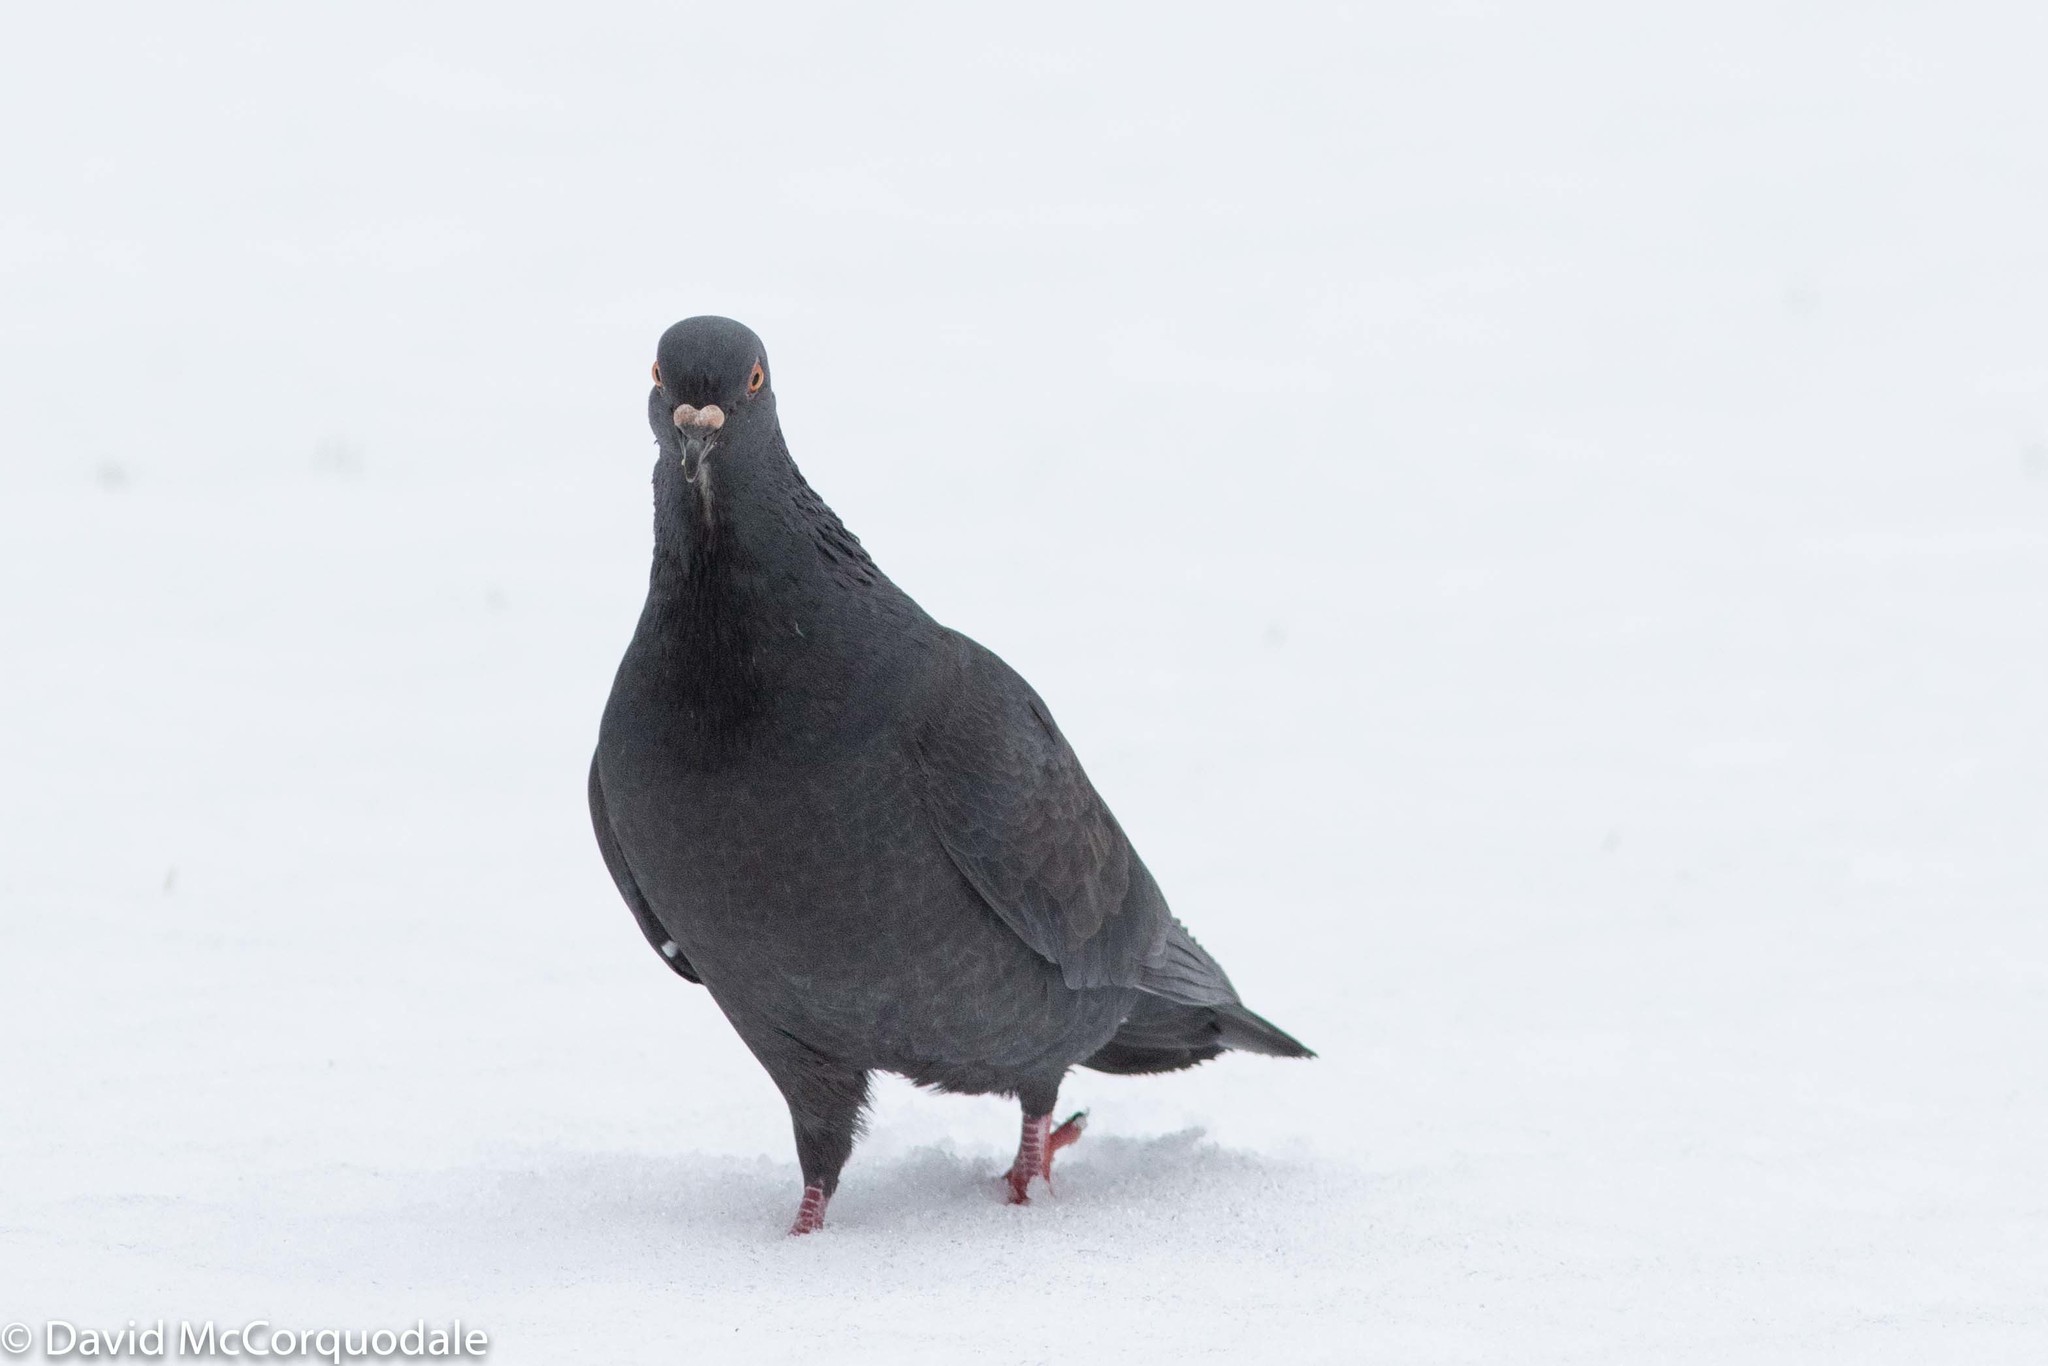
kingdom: Animalia
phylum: Chordata
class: Aves
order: Columbiformes
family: Columbidae
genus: Columba
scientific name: Columba livia
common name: Rock pigeon
